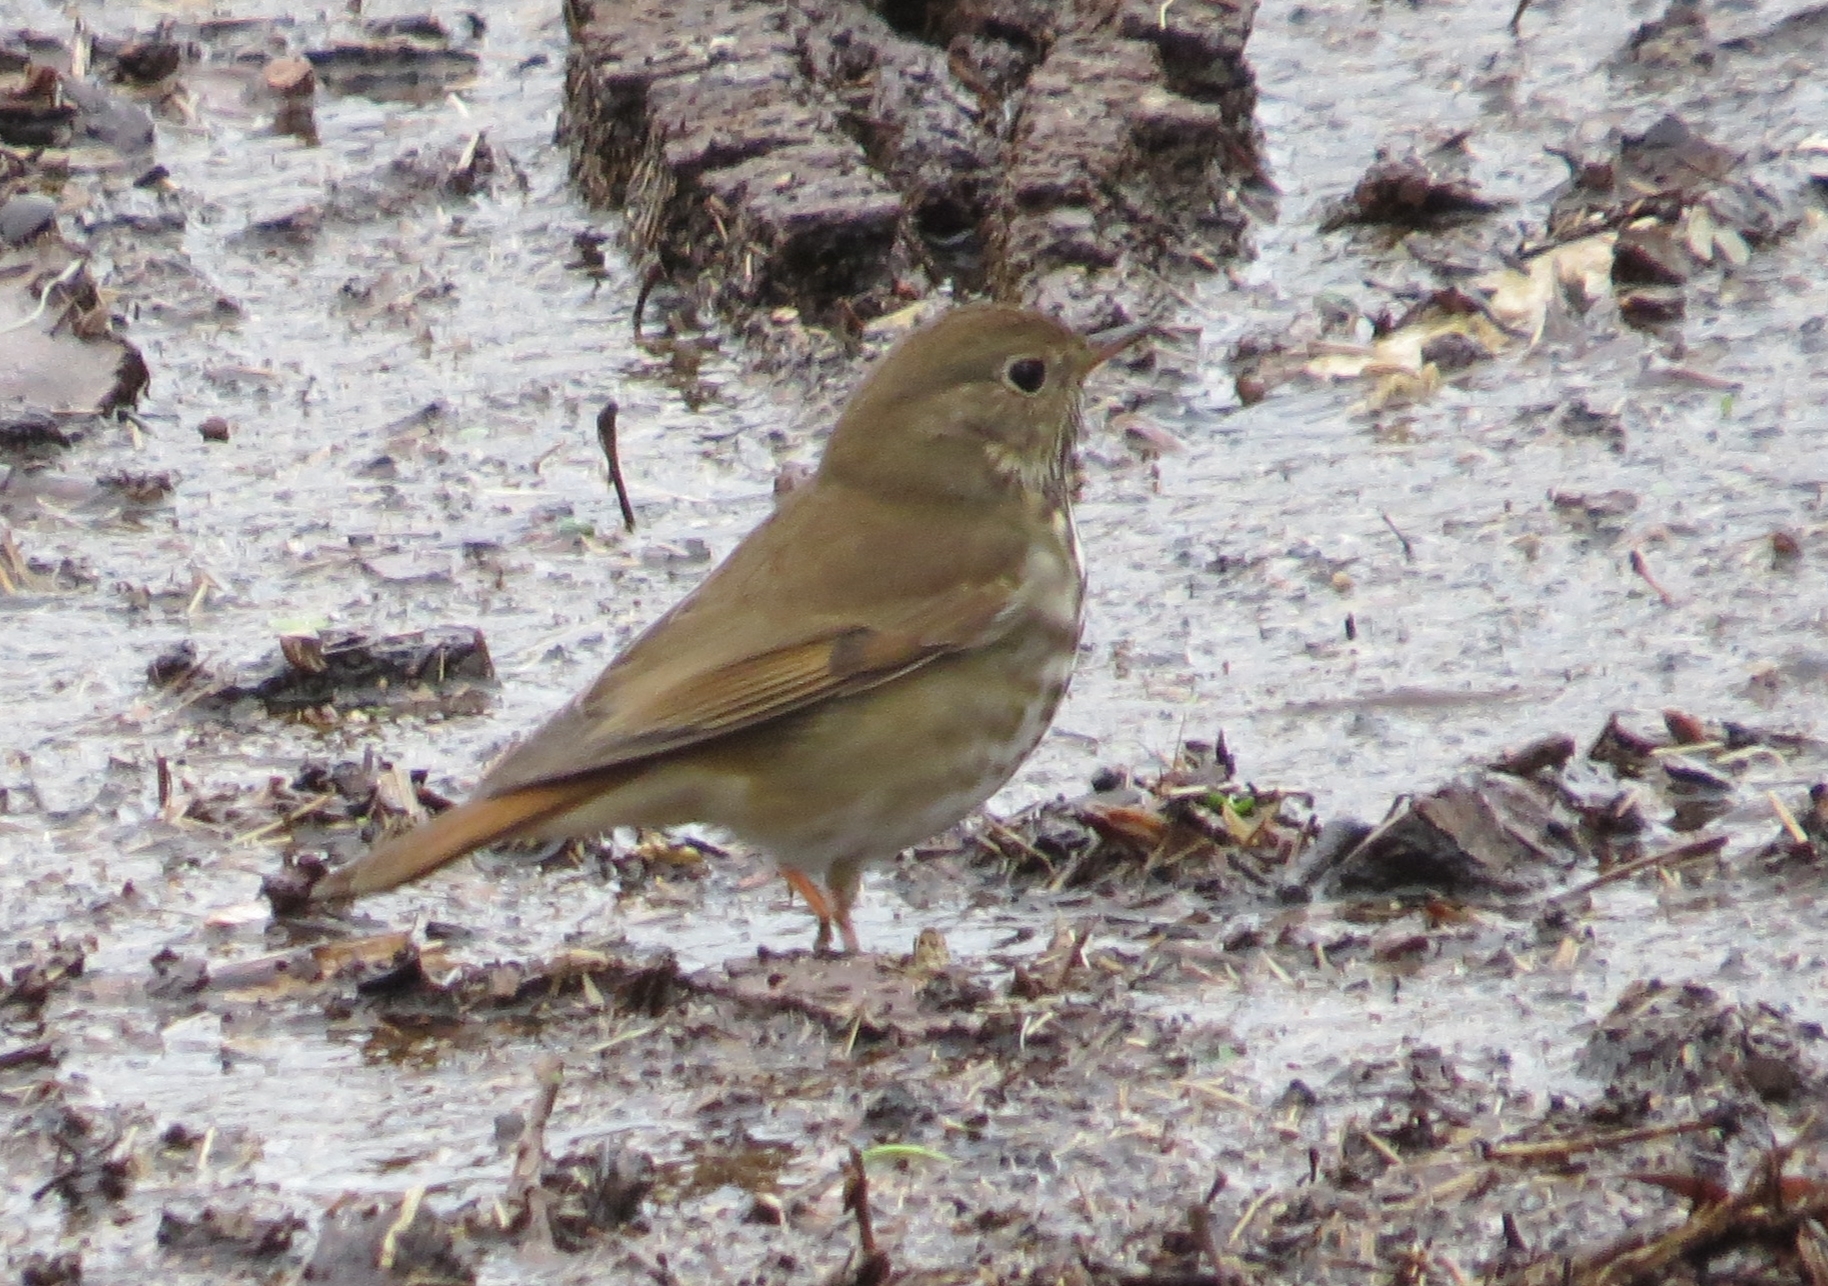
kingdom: Animalia
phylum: Chordata
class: Aves
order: Passeriformes
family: Turdidae
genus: Catharus
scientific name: Catharus guttatus
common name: Hermit thrush
